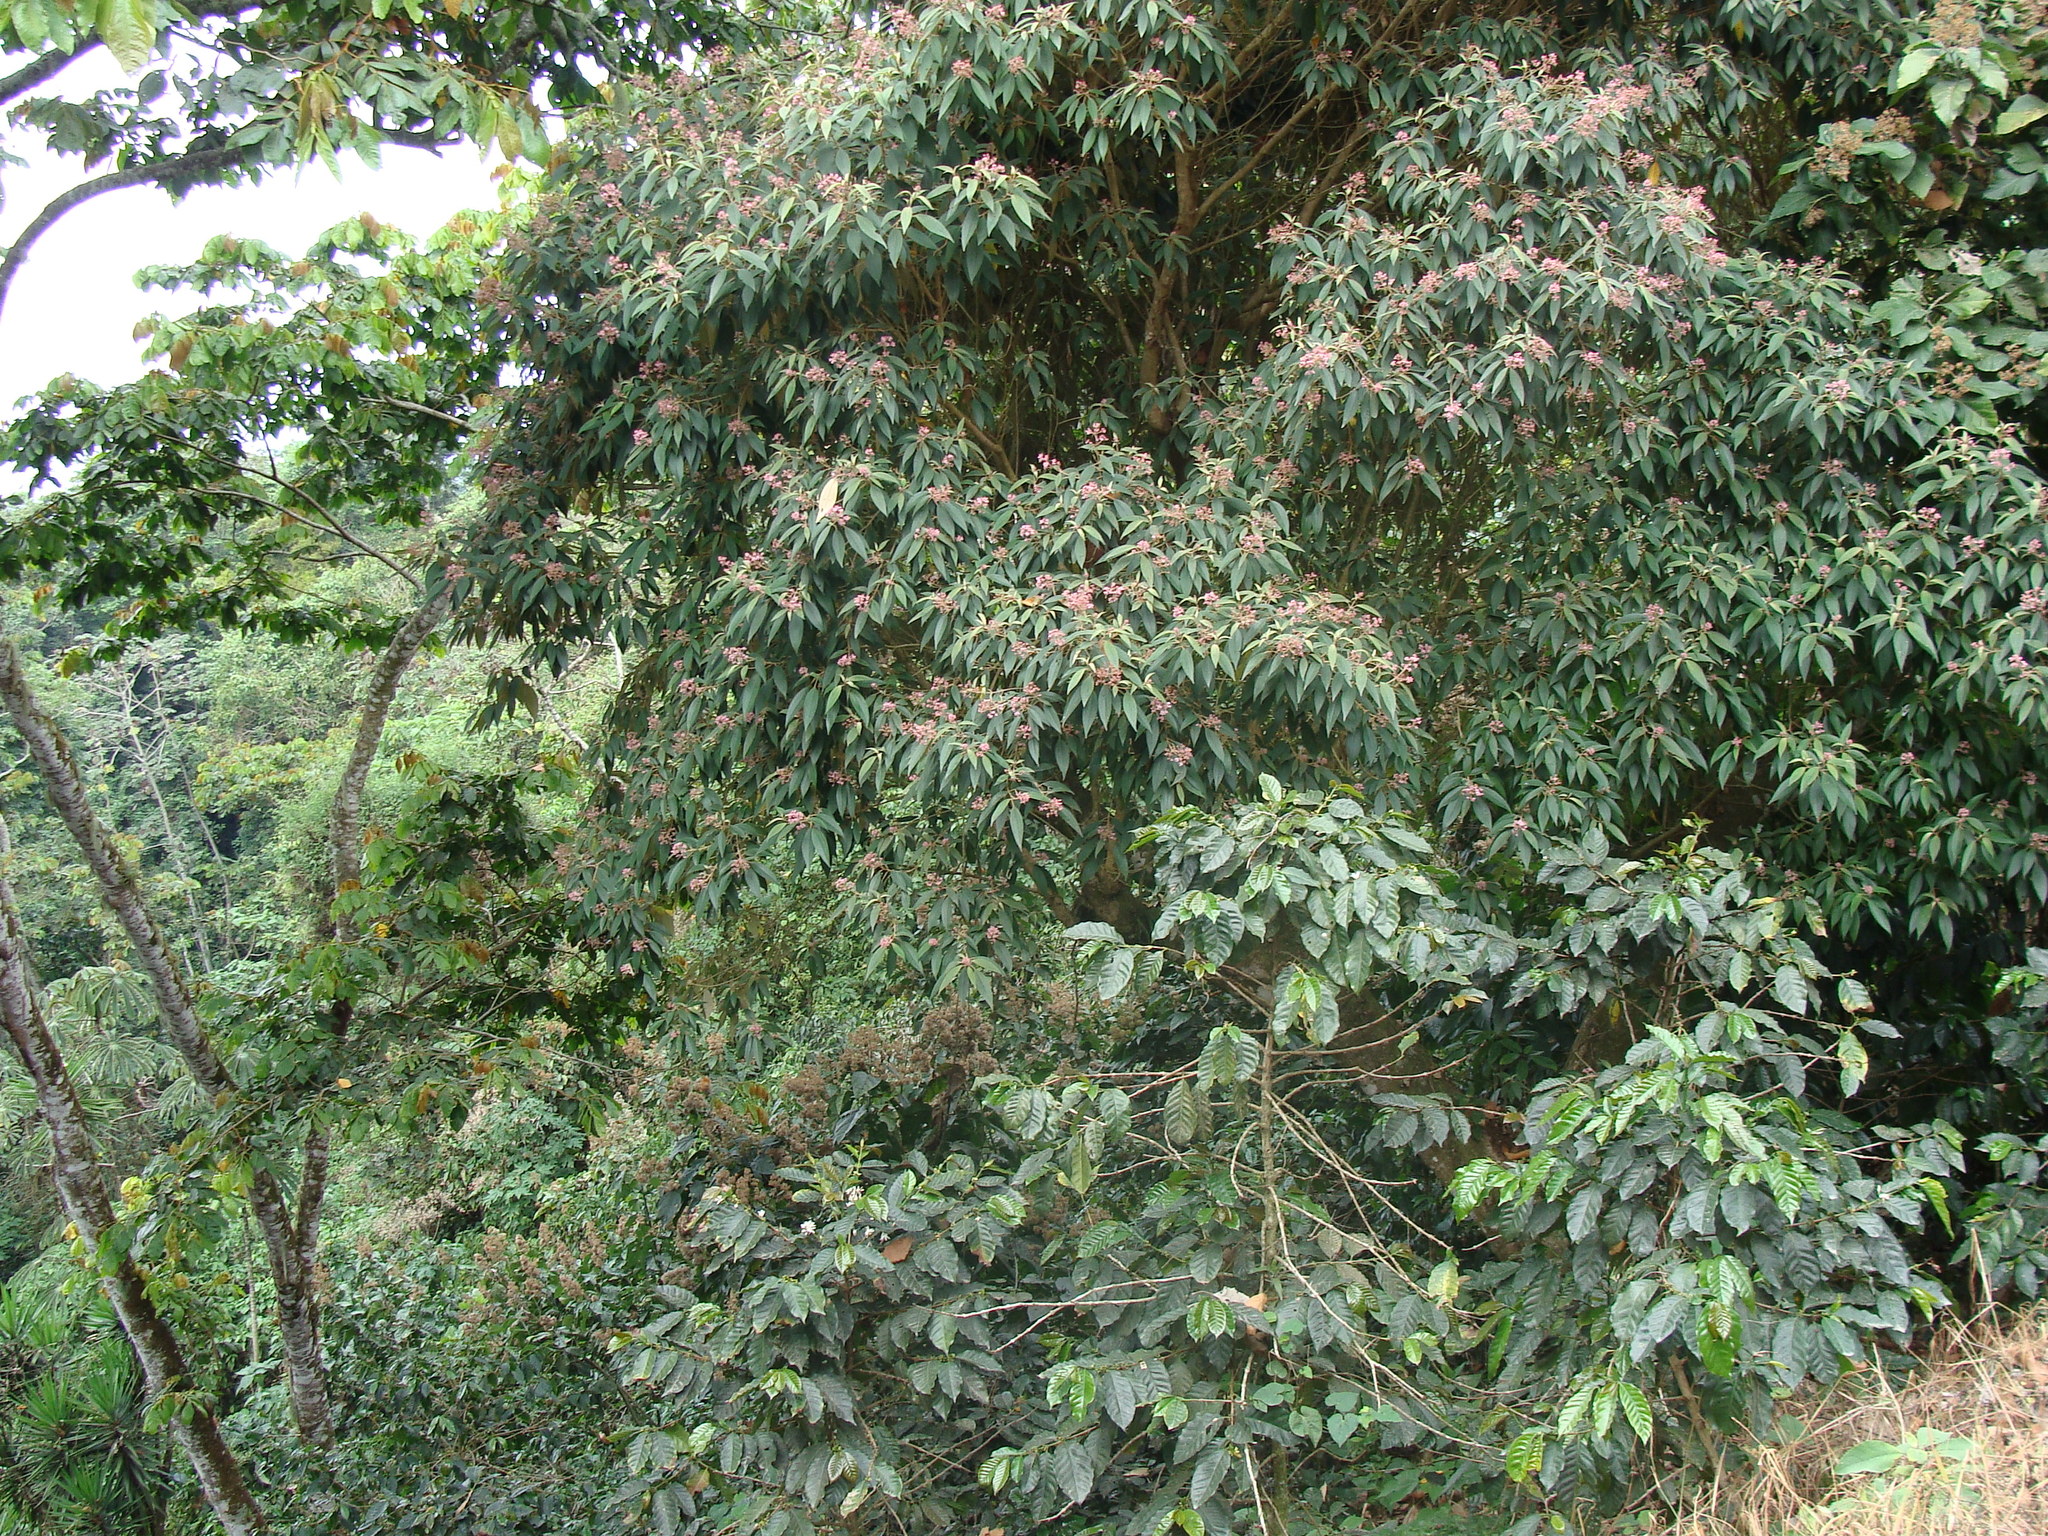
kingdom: Plantae
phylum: Tracheophyta
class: Magnoliopsida
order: Myrtales
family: Melastomataceae
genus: Miconia
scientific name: Miconia xalapensis
